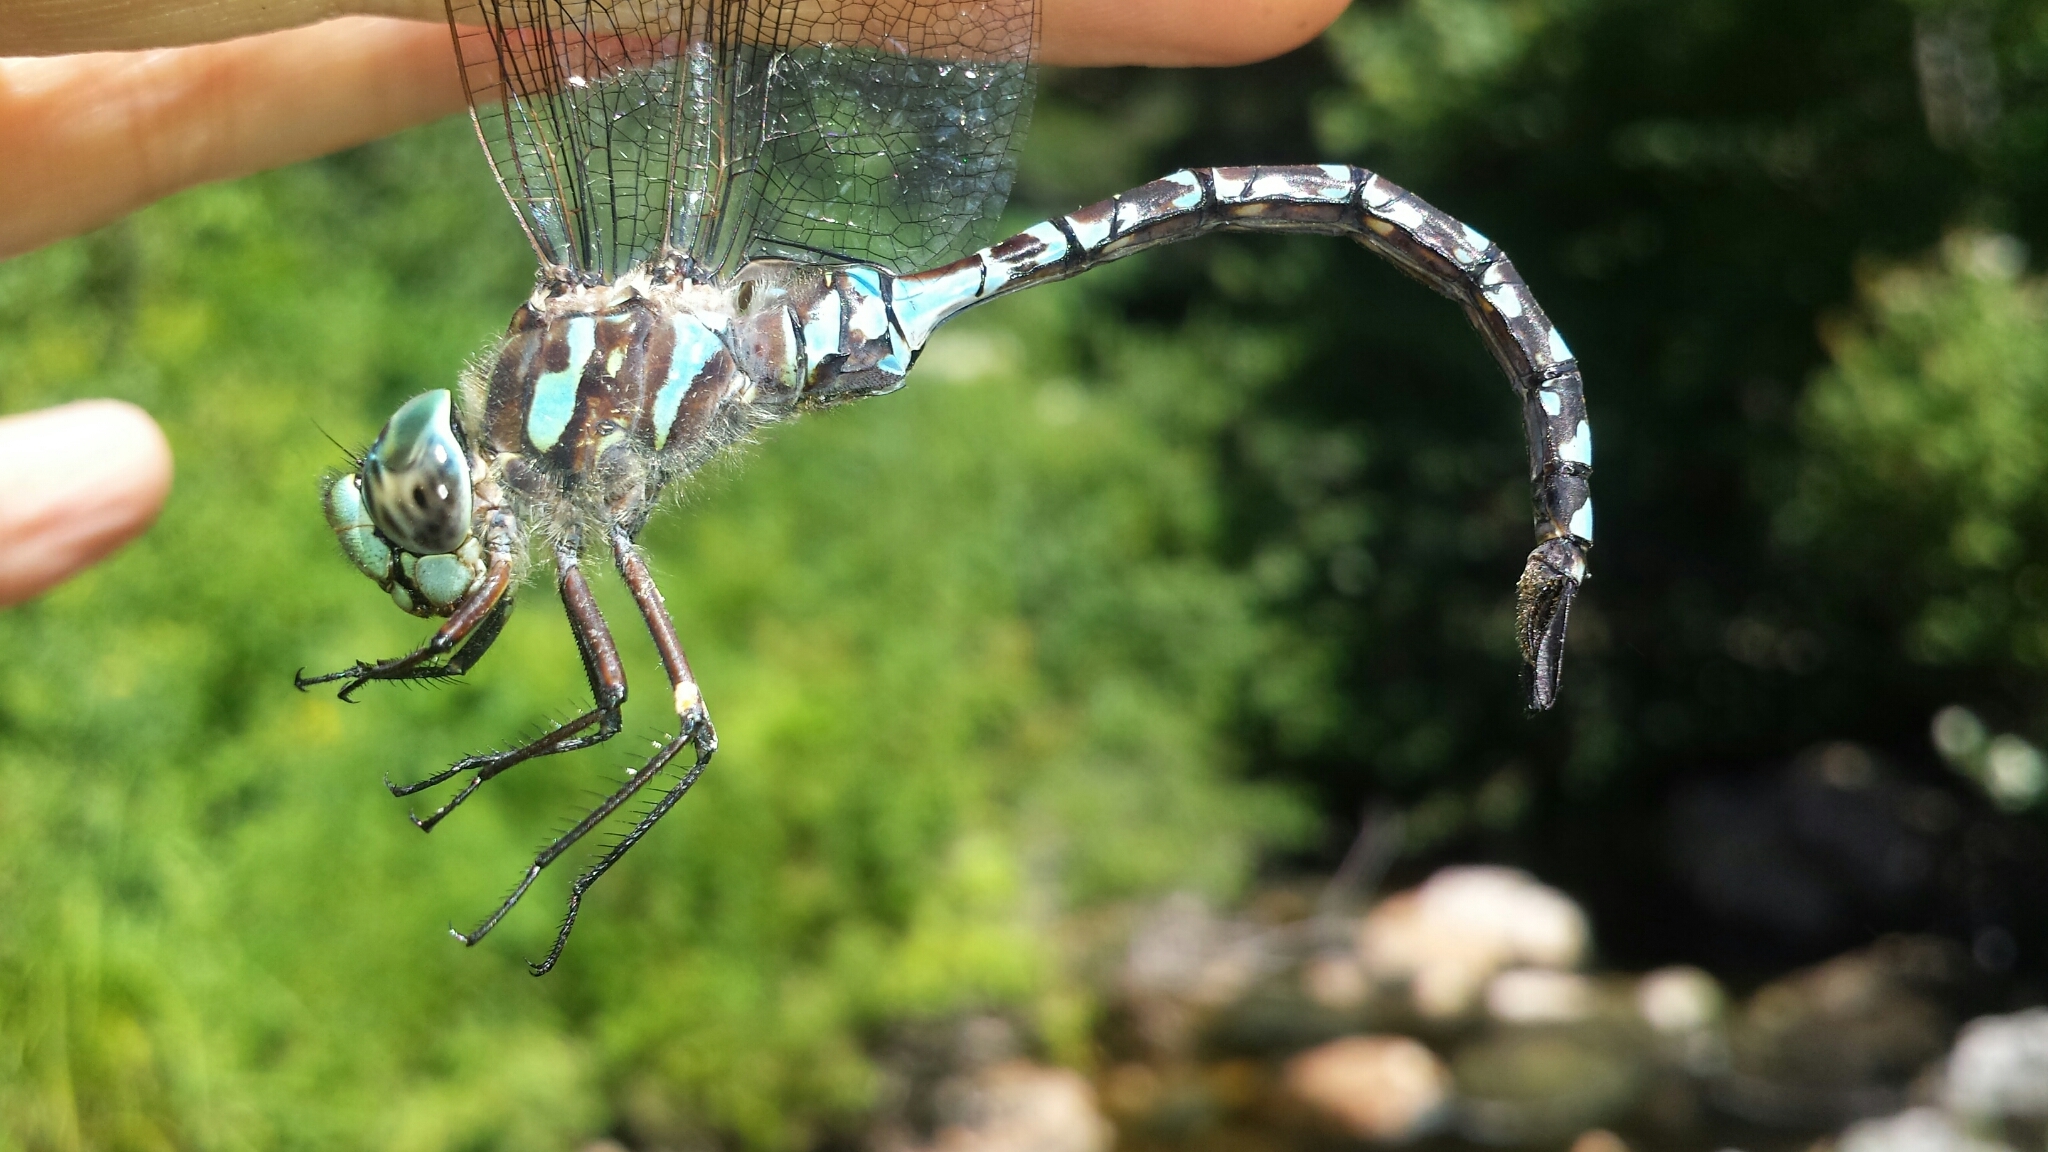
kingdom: Animalia
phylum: Arthropoda
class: Insecta
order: Odonata
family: Aeshnidae
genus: Aeshna
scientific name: Aeshna canadensis
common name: Canada darner
